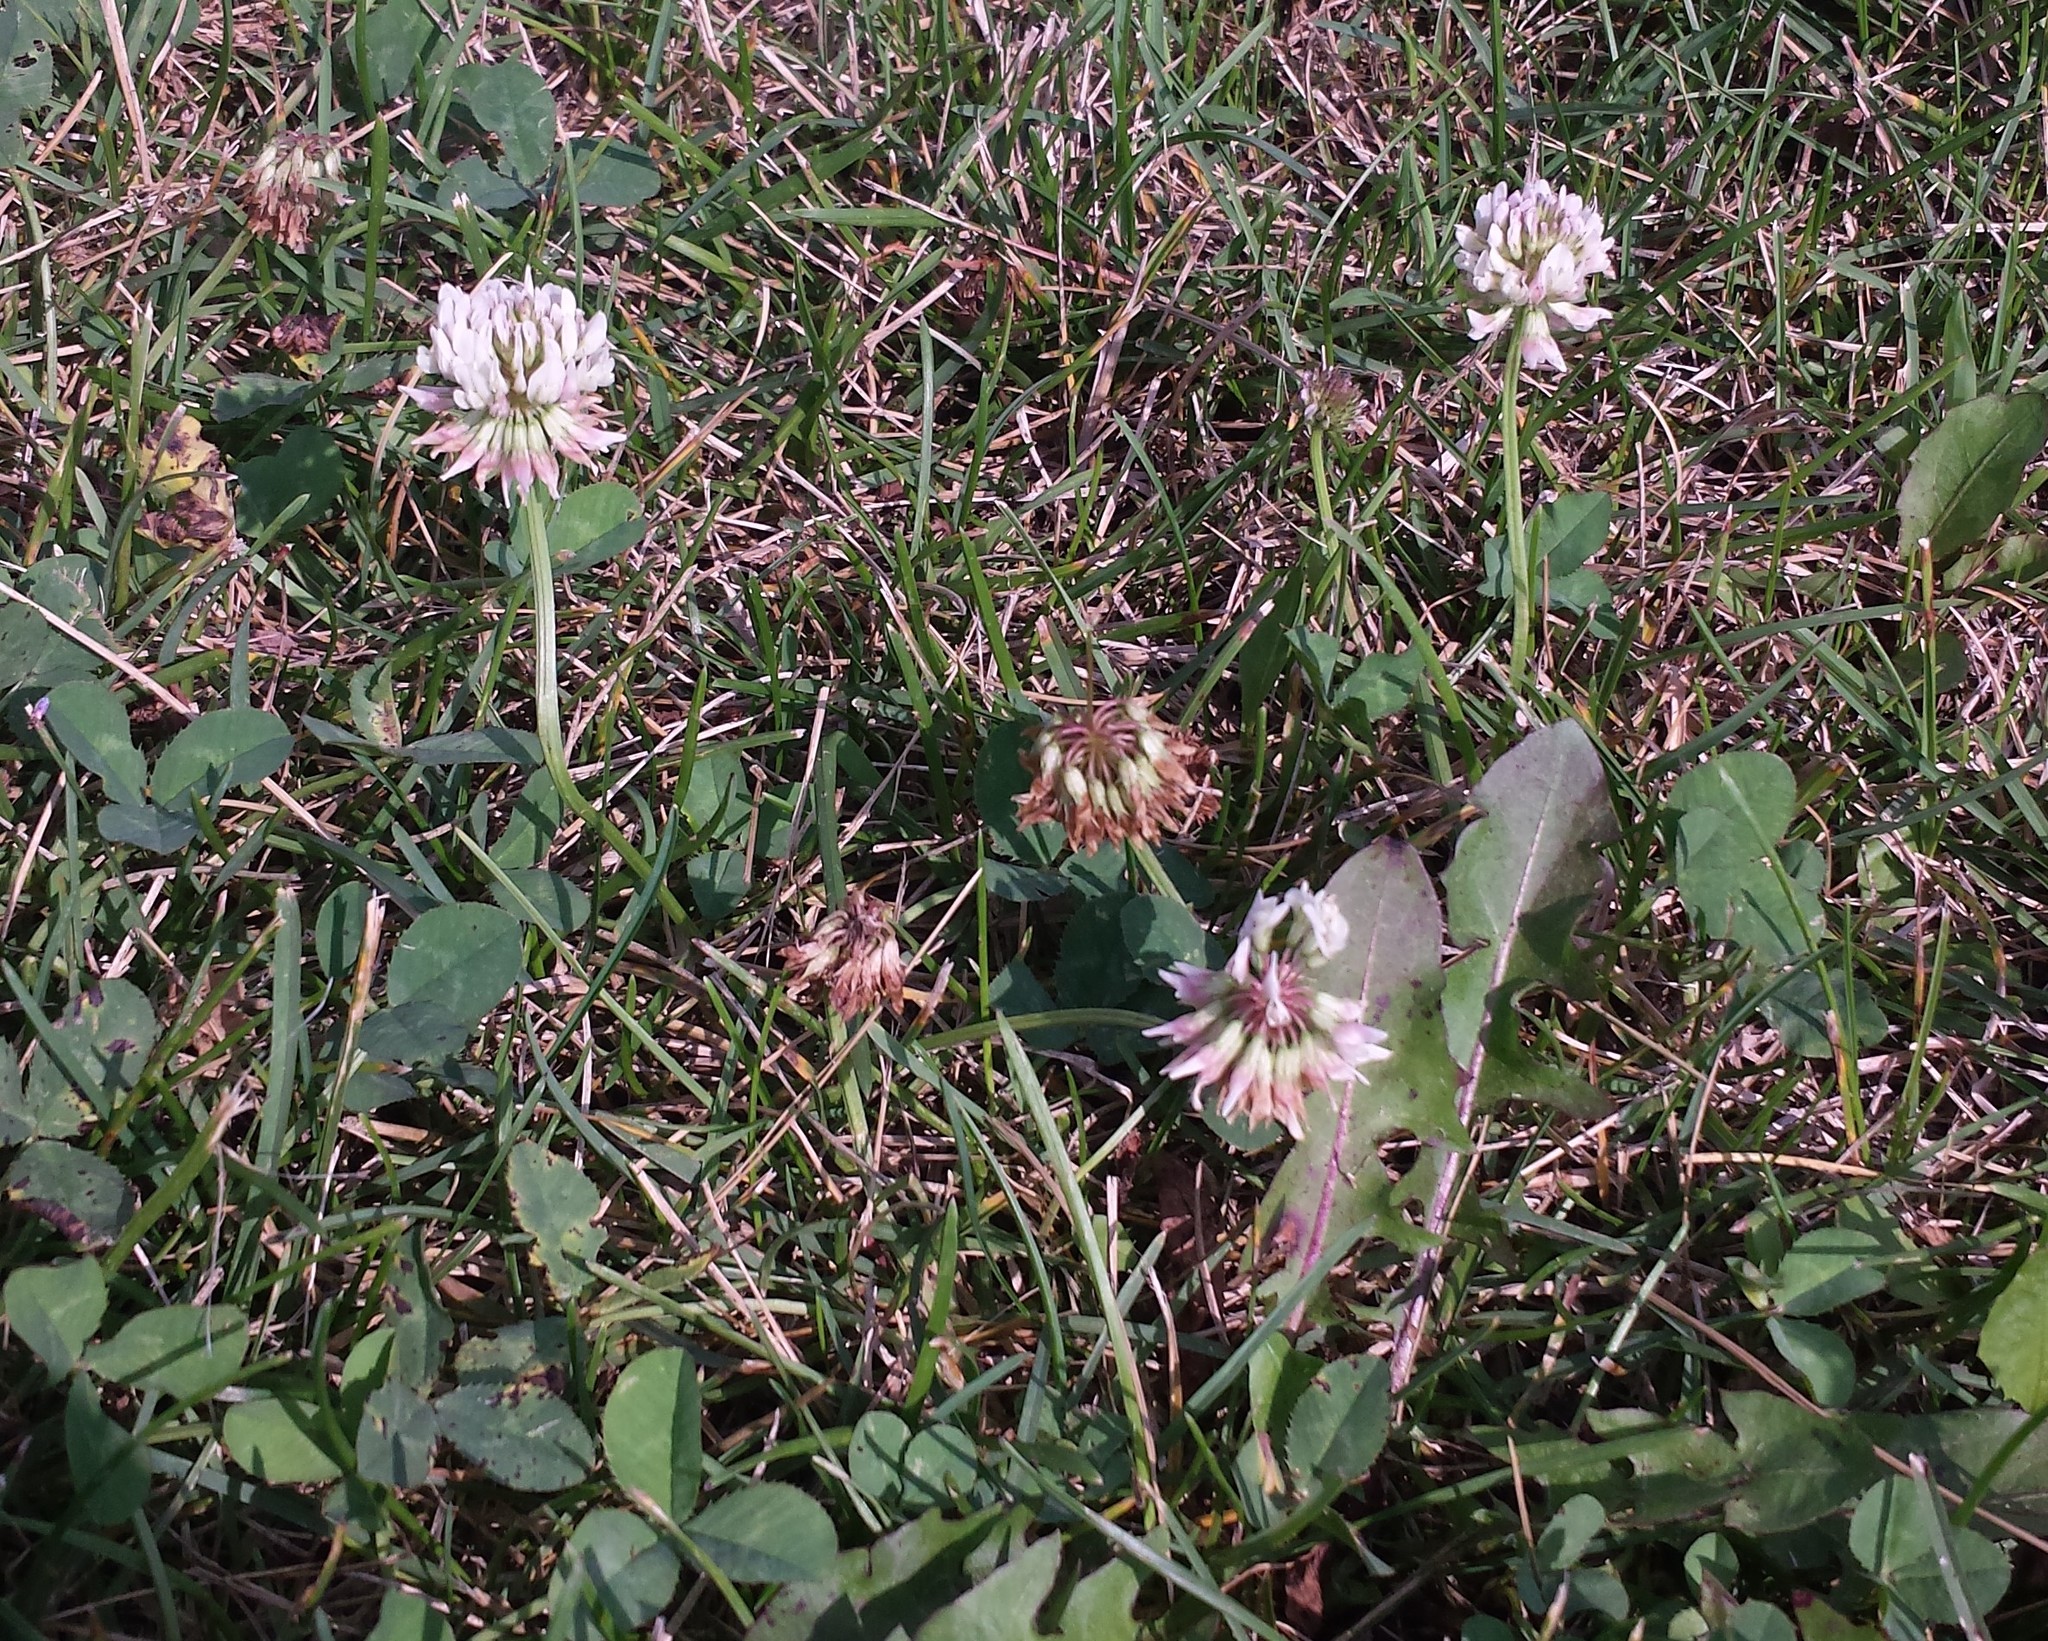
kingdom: Plantae
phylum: Tracheophyta
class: Magnoliopsida
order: Fabales
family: Fabaceae
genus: Trifolium
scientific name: Trifolium repens
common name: White clover
